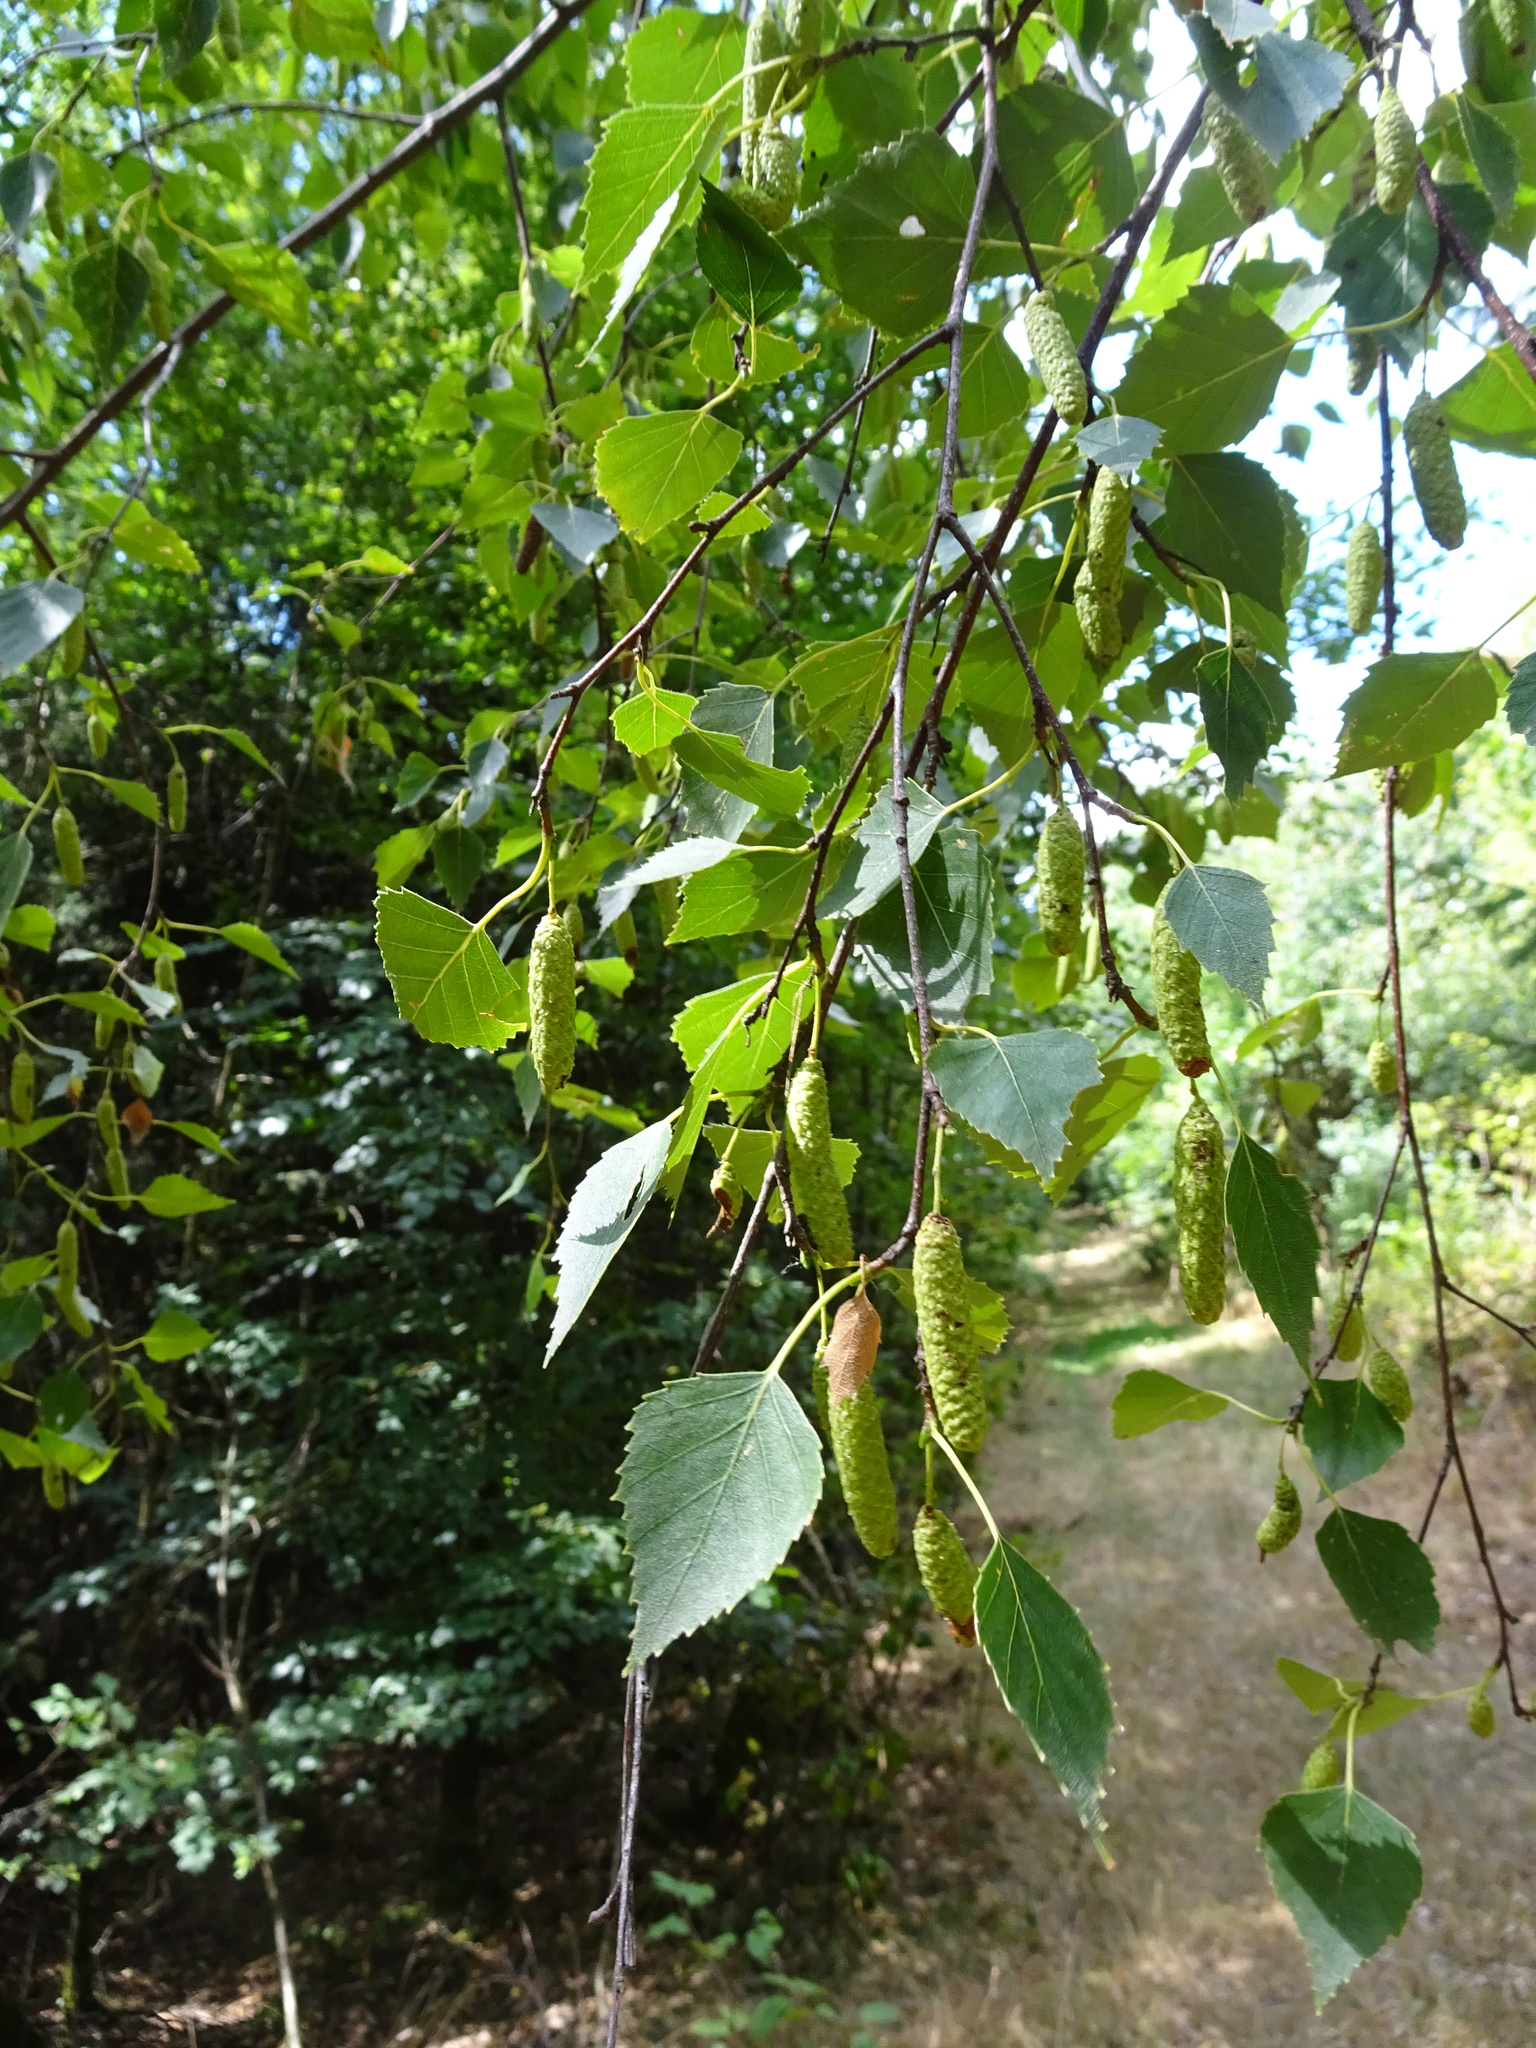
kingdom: Plantae
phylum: Tracheophyta
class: Magnoliopsida
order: Fagales
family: Betulaceae
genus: Betula
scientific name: Betula pendula
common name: Silver birch
